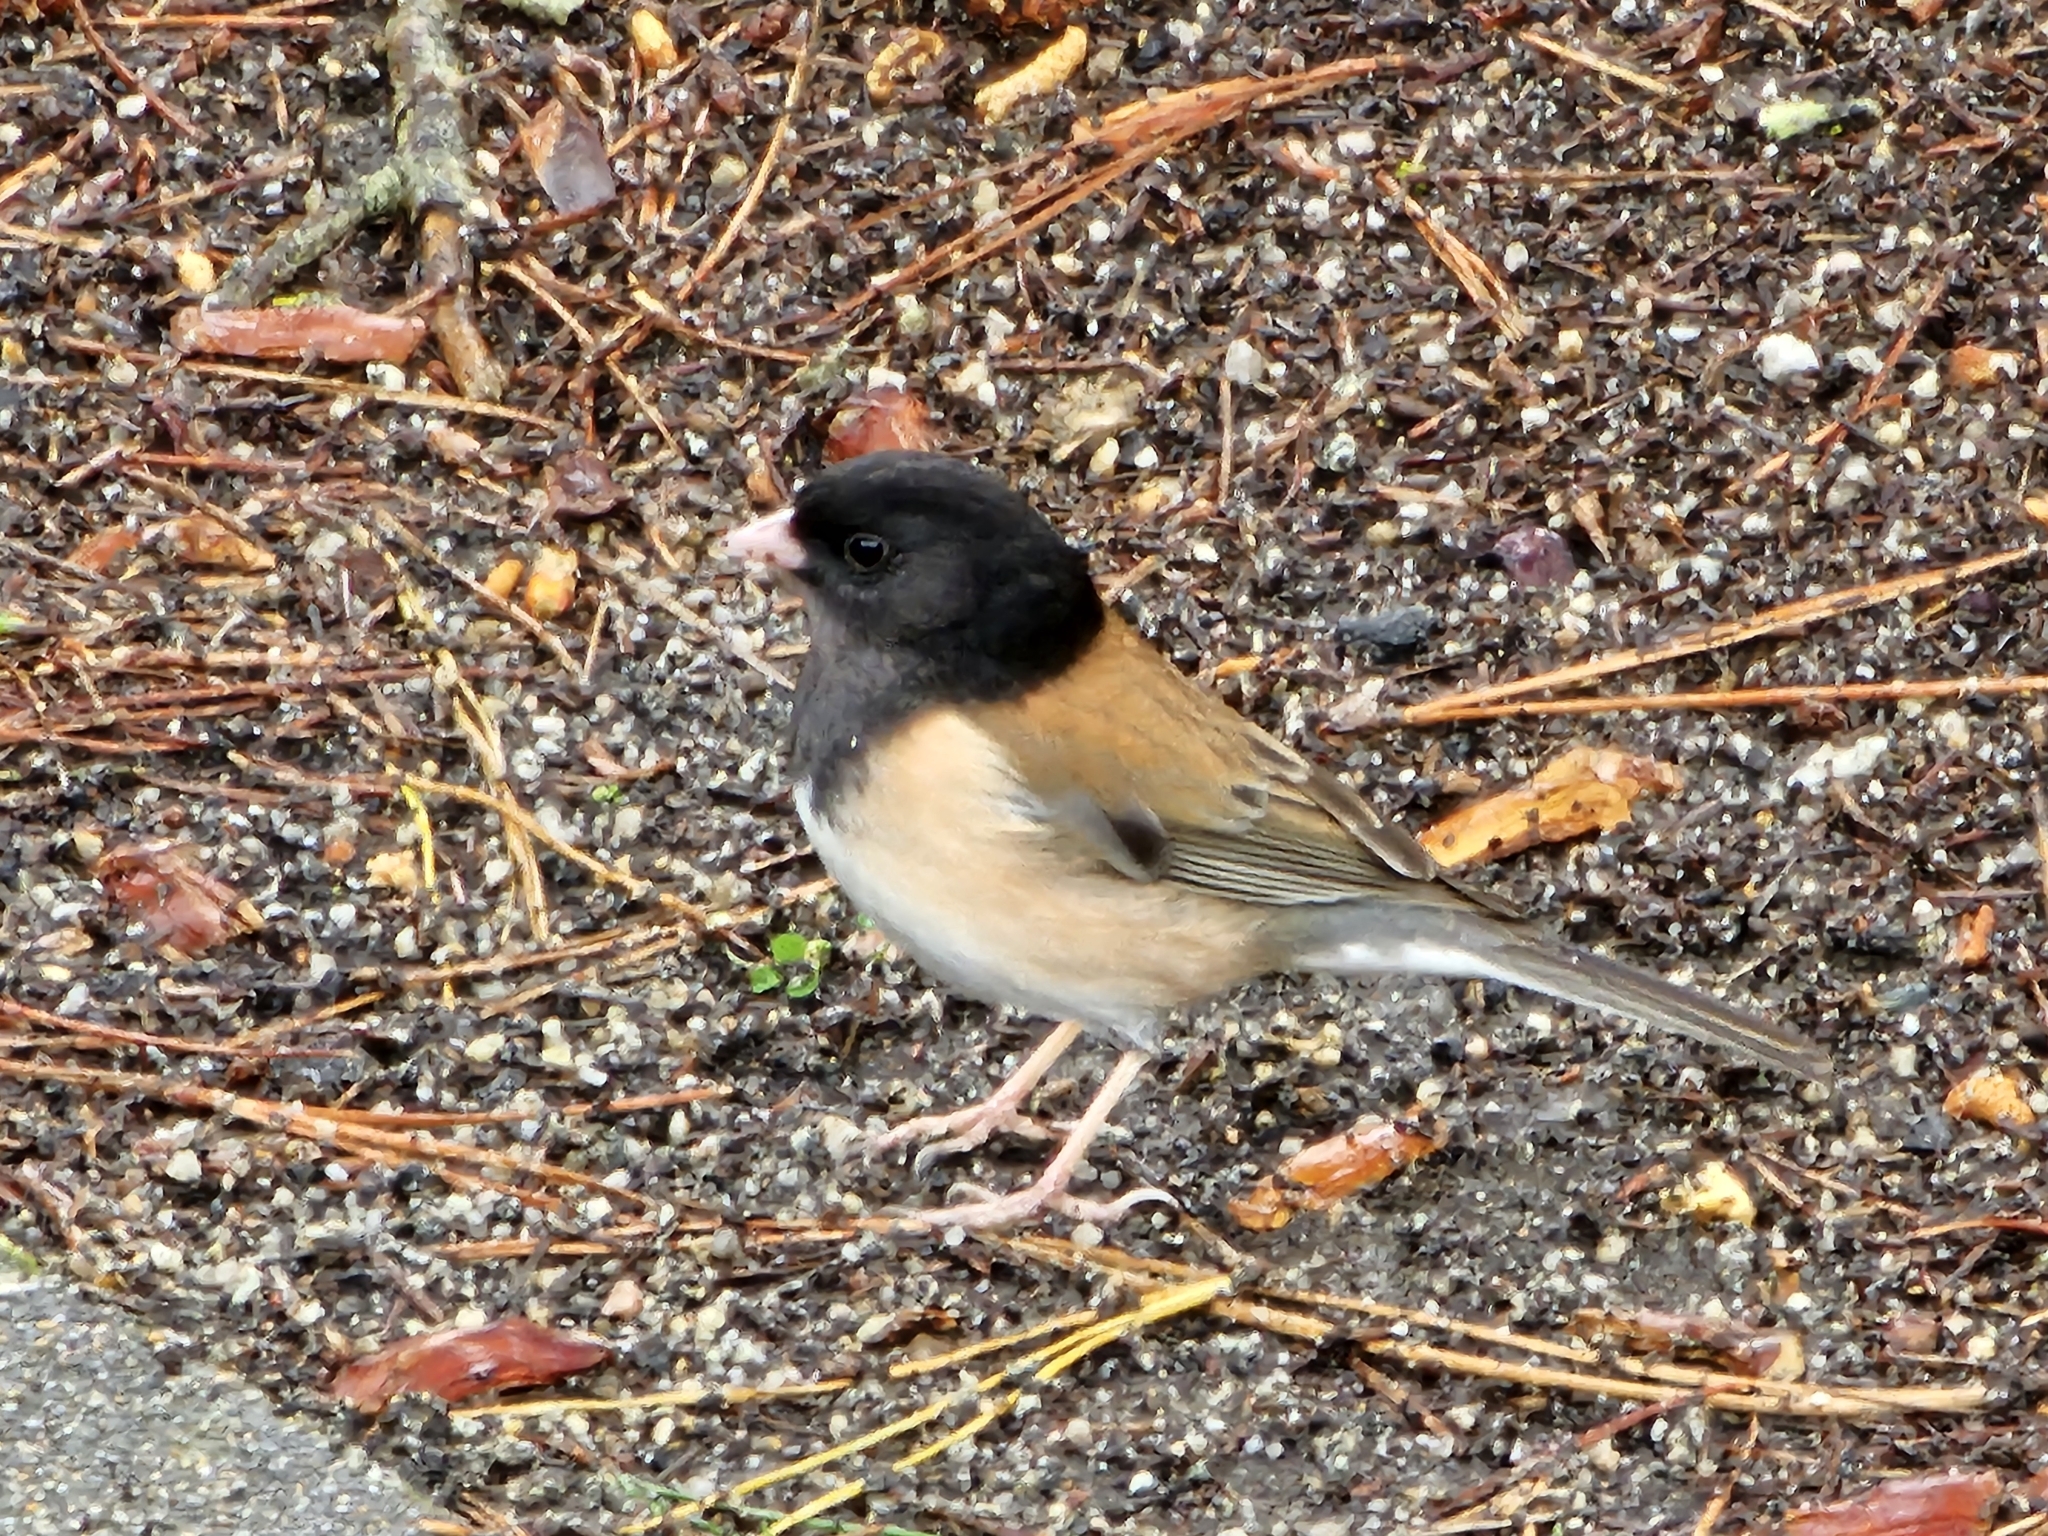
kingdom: Animalia
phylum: Chordata
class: Aves
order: Passeriformes
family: Passerellidae
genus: Junco
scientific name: Junco hyemalis
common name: Dark-eyed junco
